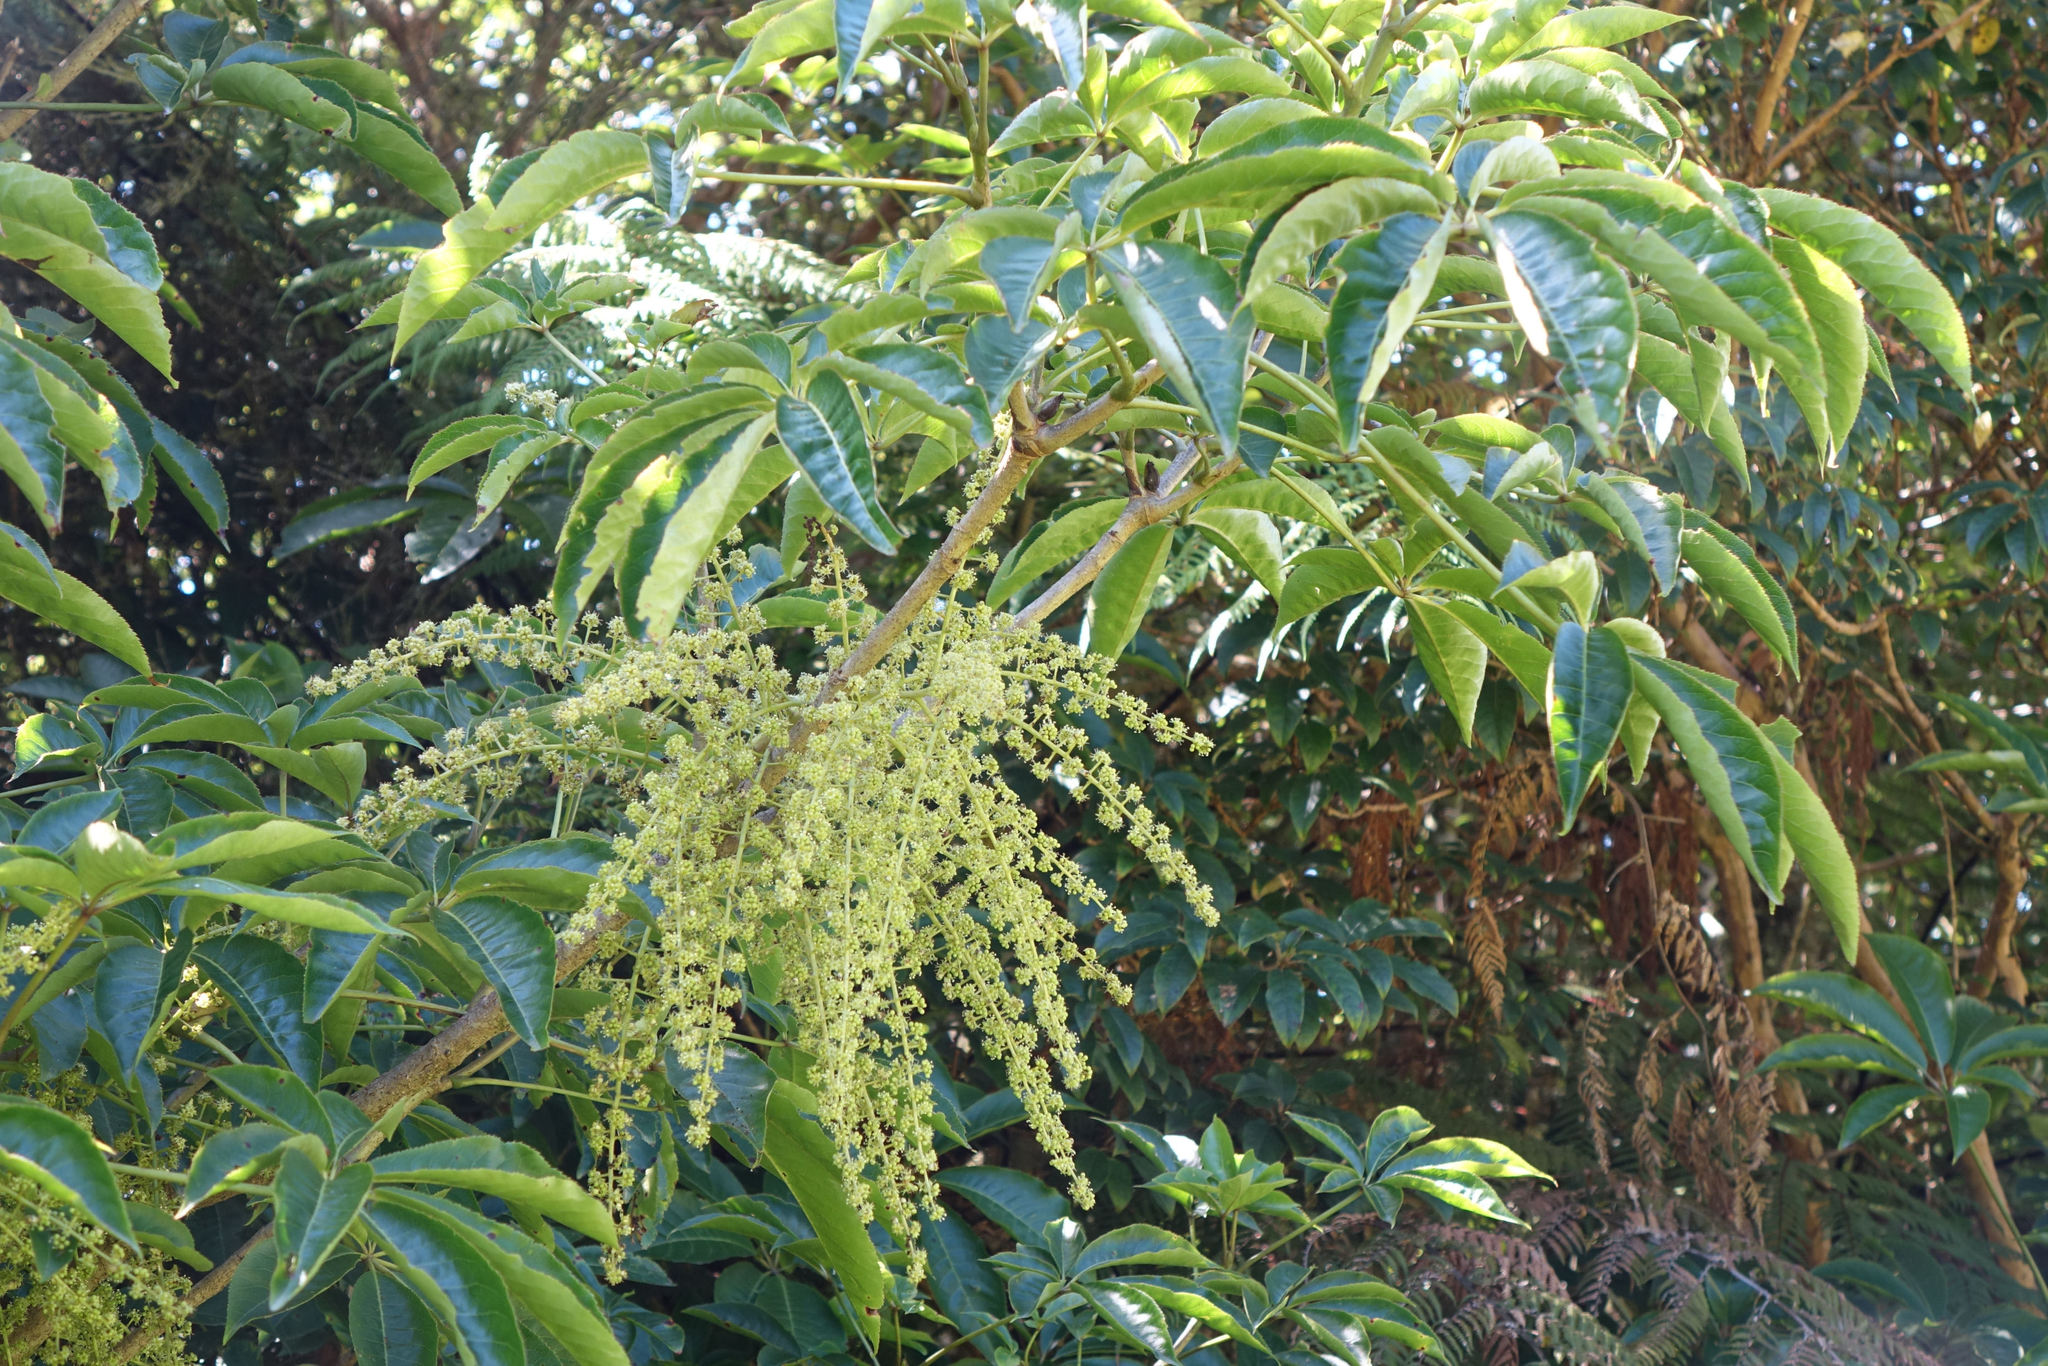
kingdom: Plantae
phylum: Tracheophyta
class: Magnoliopsida
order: Apiales
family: Araliaceae
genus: Schefflera
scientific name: Schefflera digitata
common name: Pate
